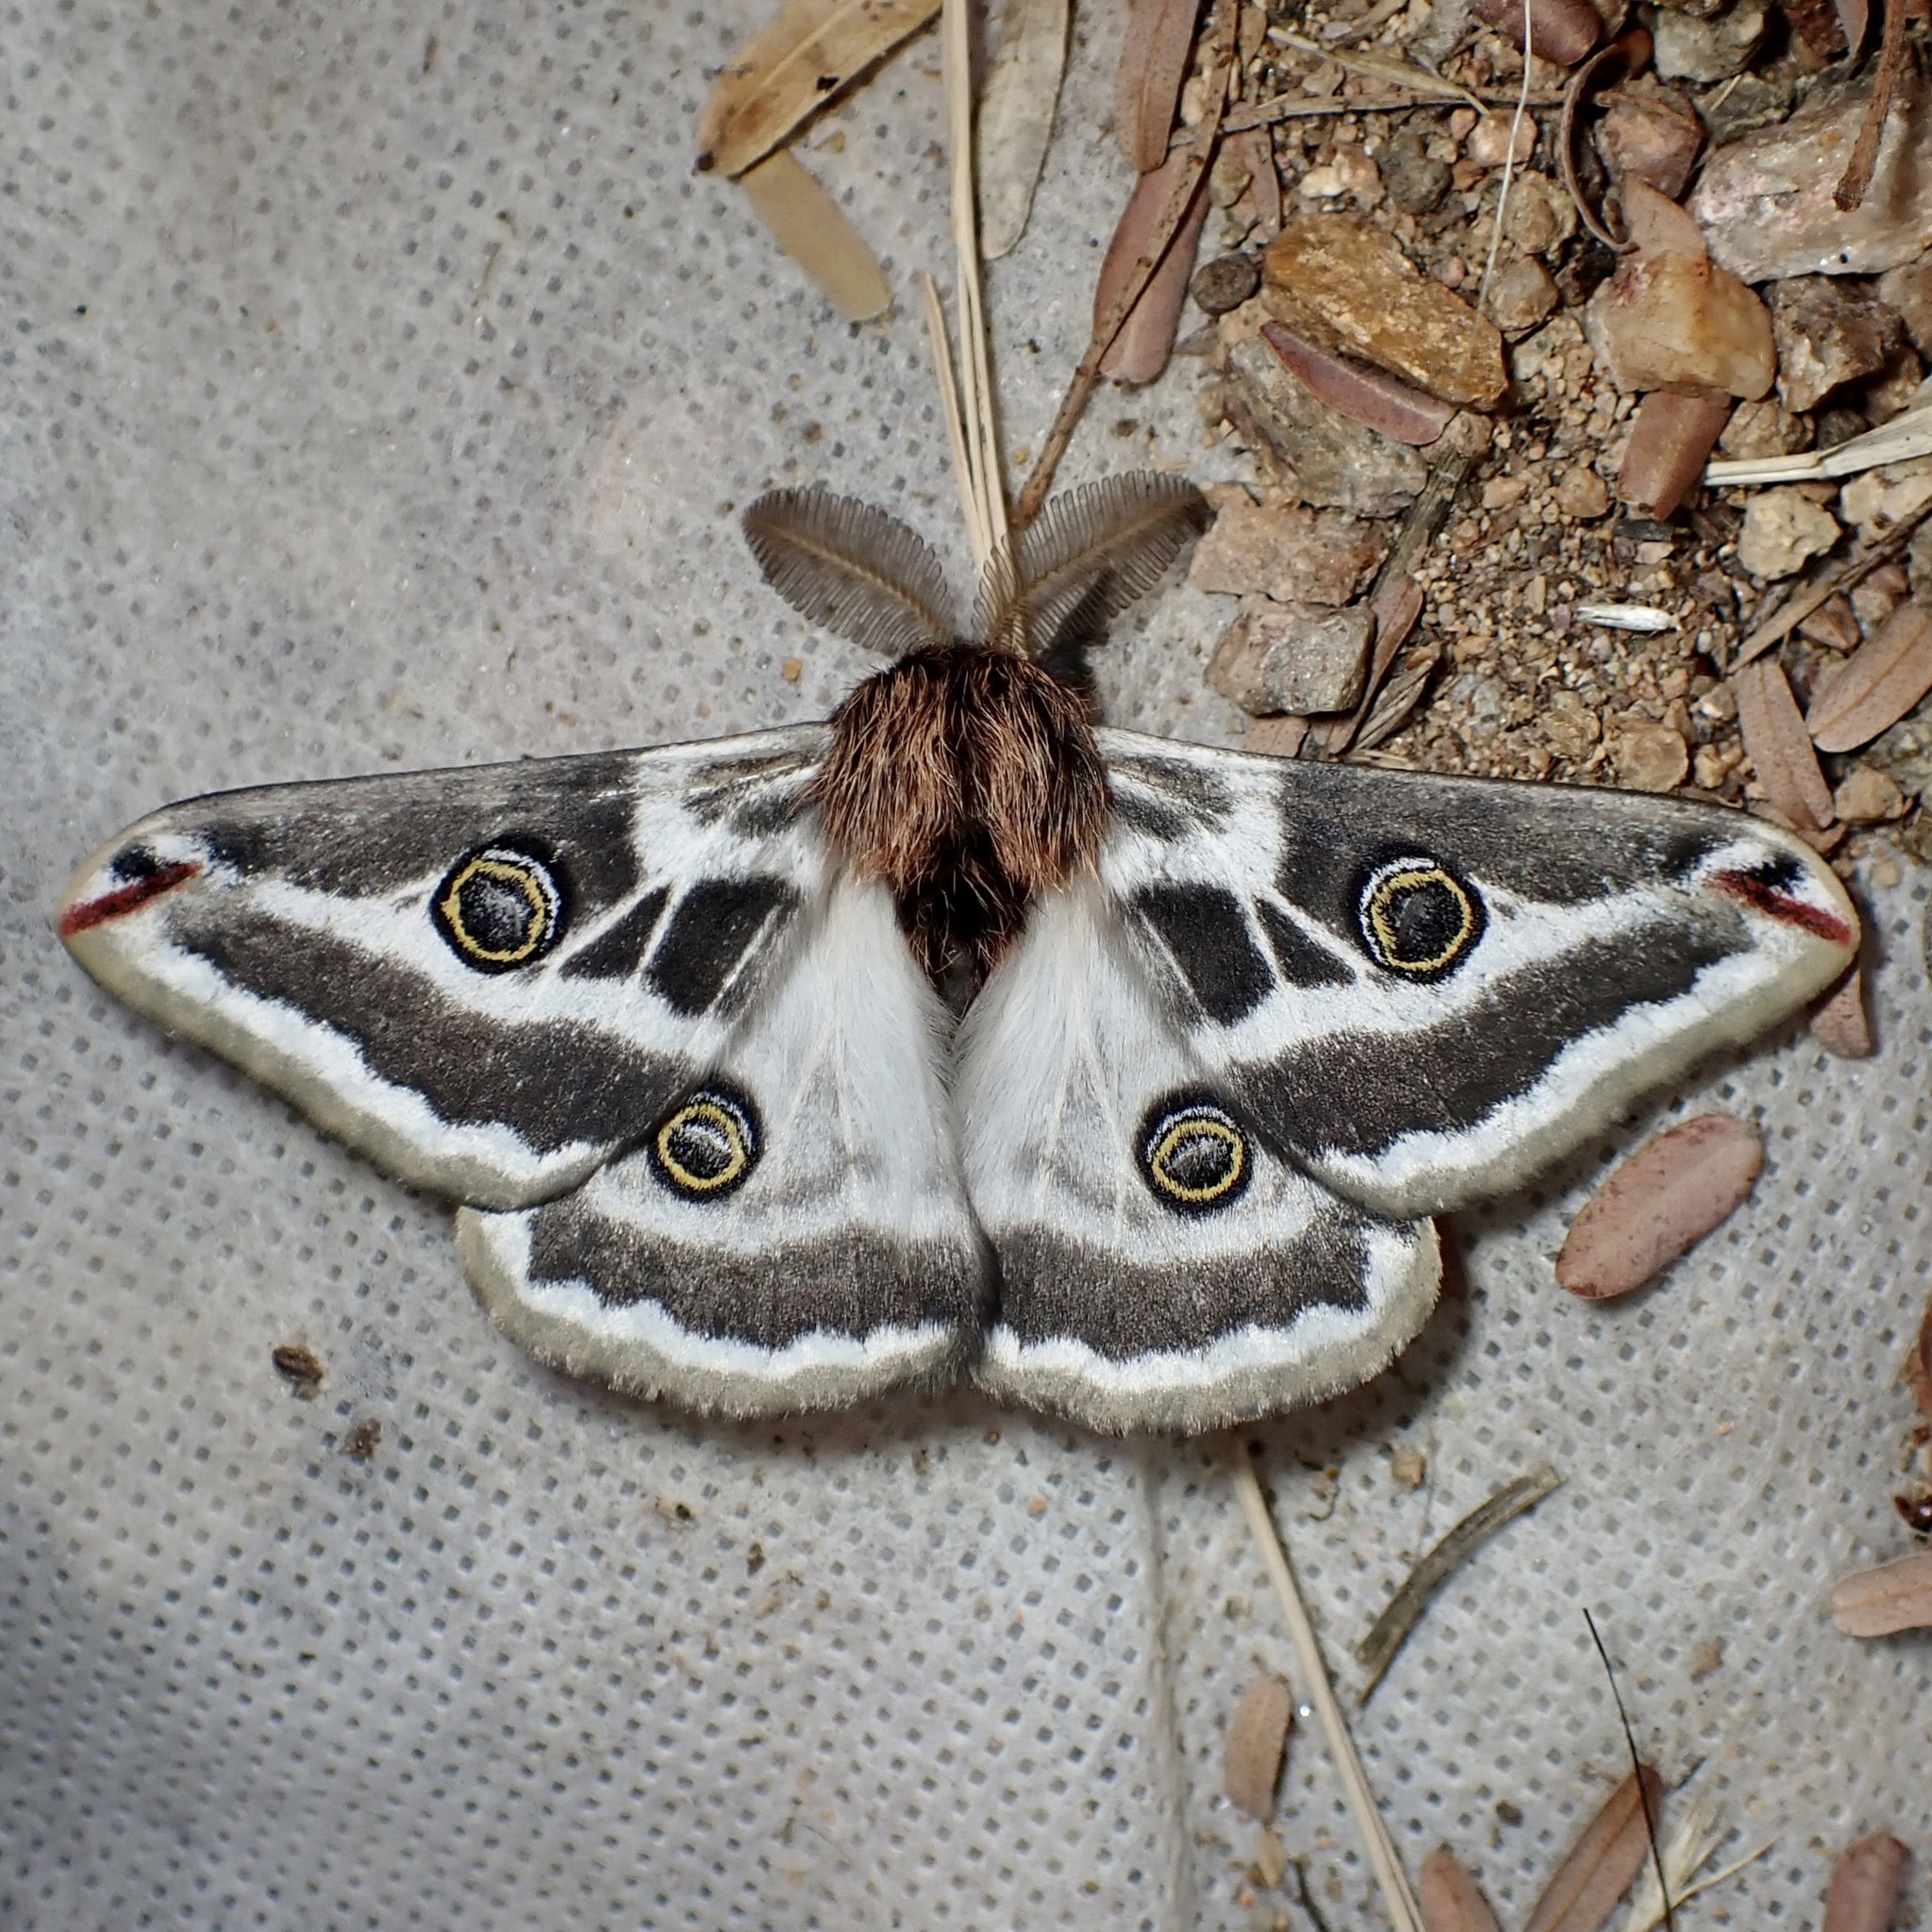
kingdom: Animalia
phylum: Arthropoda
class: Insecta
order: Lepidoptera
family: Saturniidae
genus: Saturnia
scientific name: Saturnia anona
